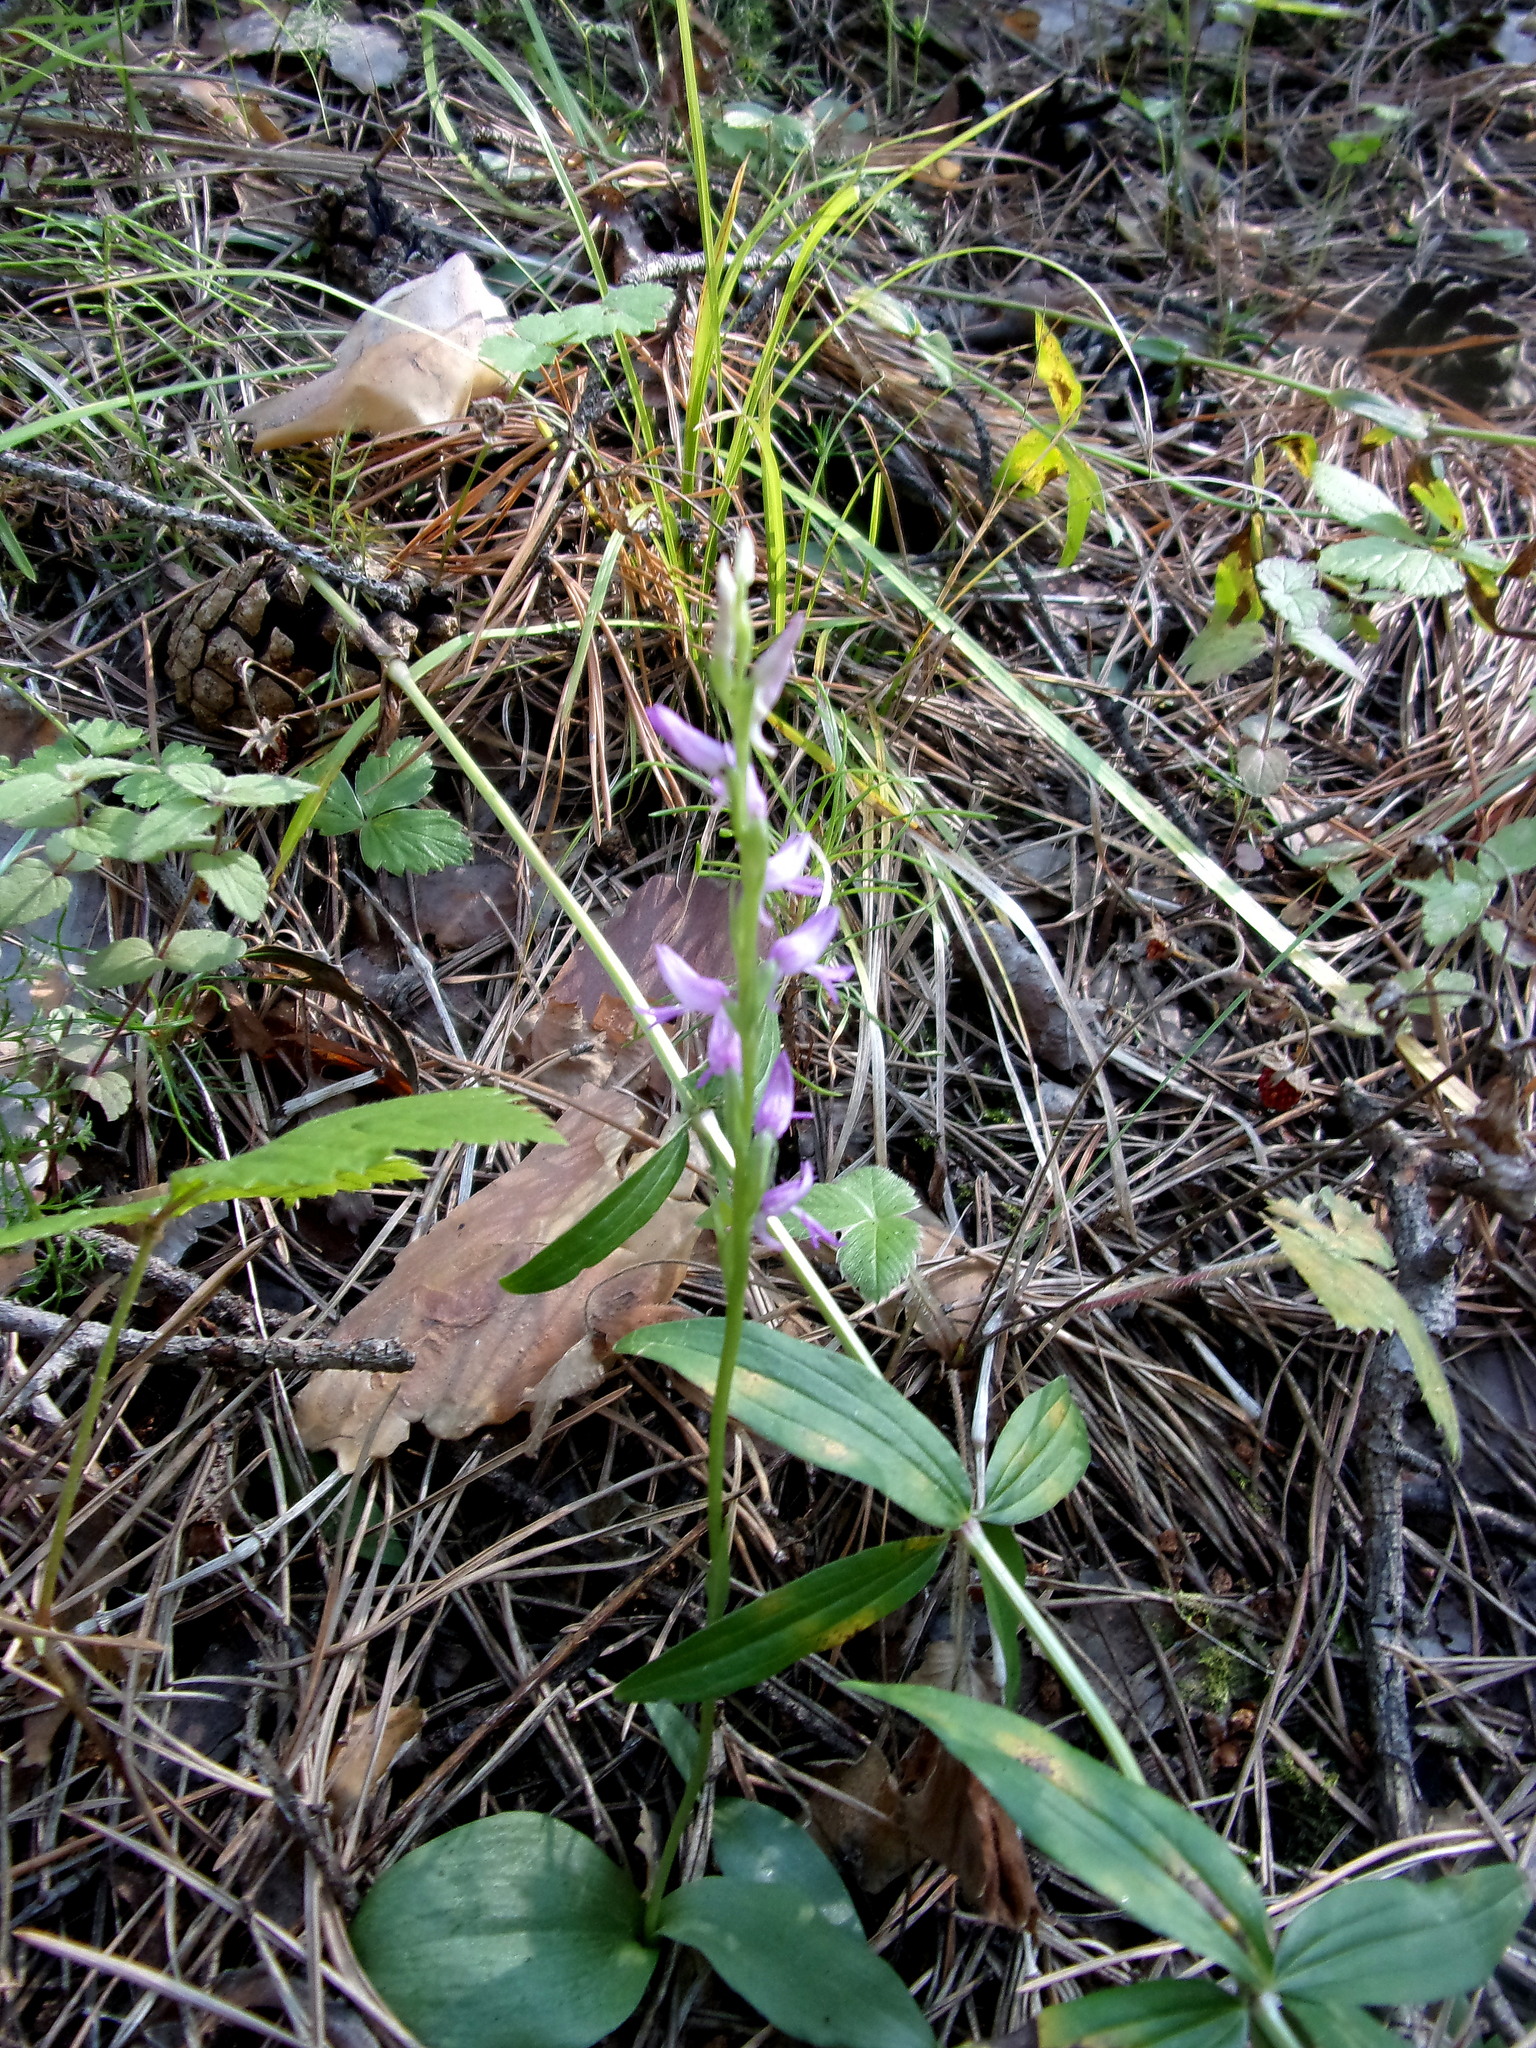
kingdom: Plantae
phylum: Tracheophyta
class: Liliopsida
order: Asparagales
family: Orchidaceae
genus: Hemipilia
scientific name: Hemipilia cucullata
